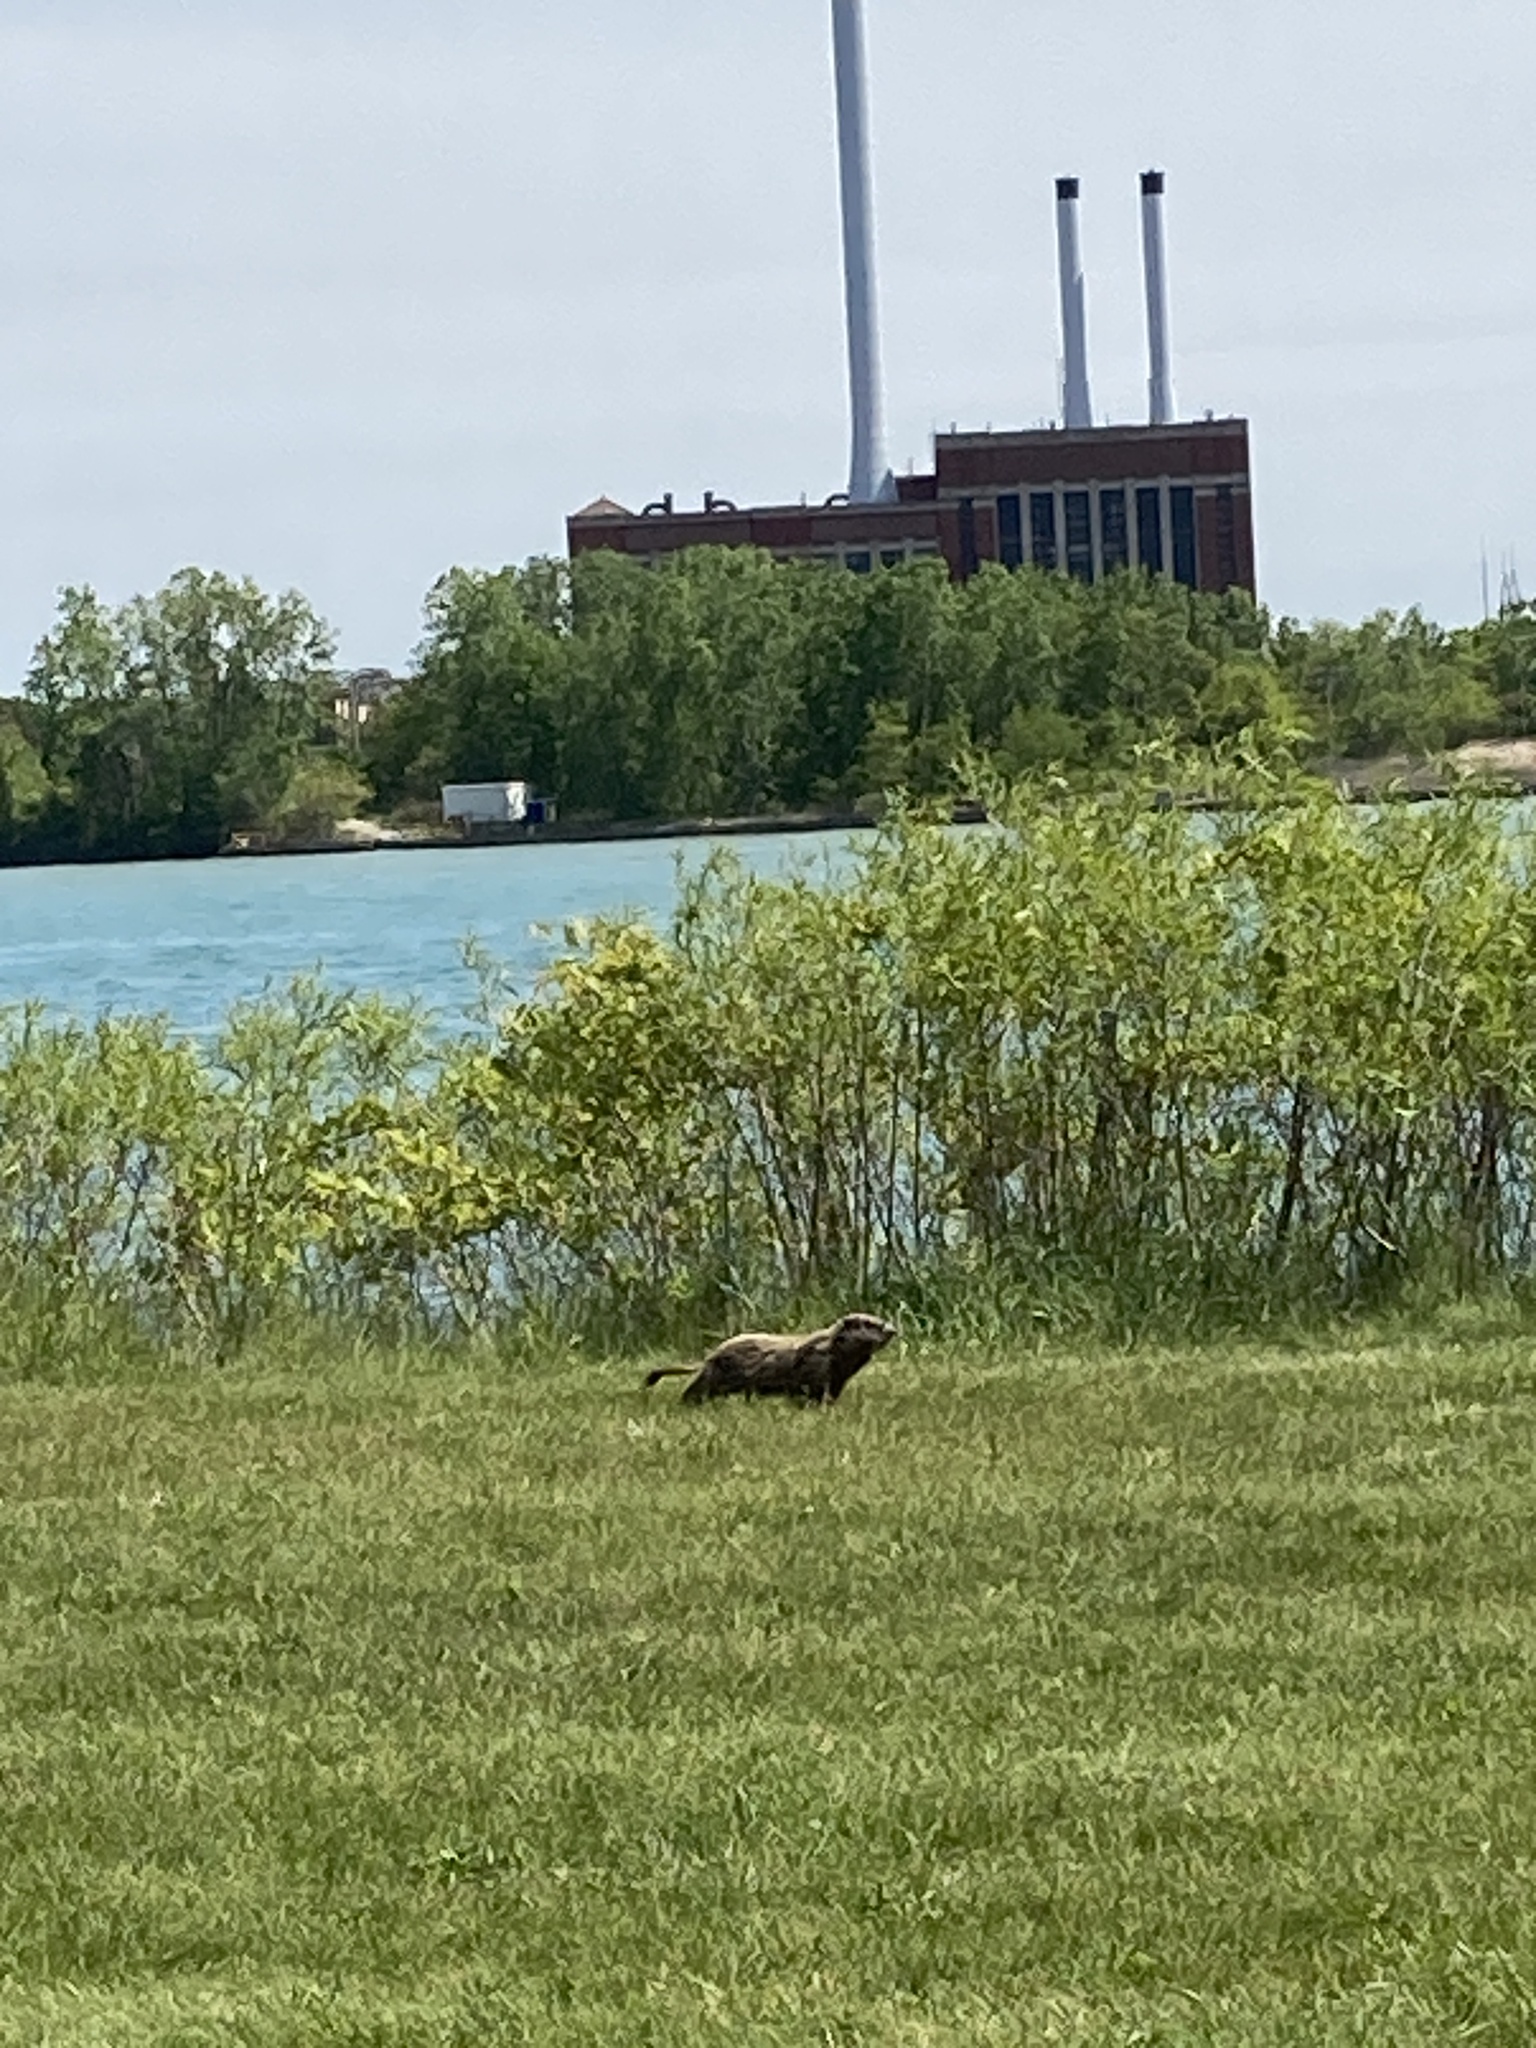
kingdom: Animalia
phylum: Chordata
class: Mammalia
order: Rodentia
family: Sciuridae
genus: Marmota
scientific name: Marmota monax
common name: Groundhog
